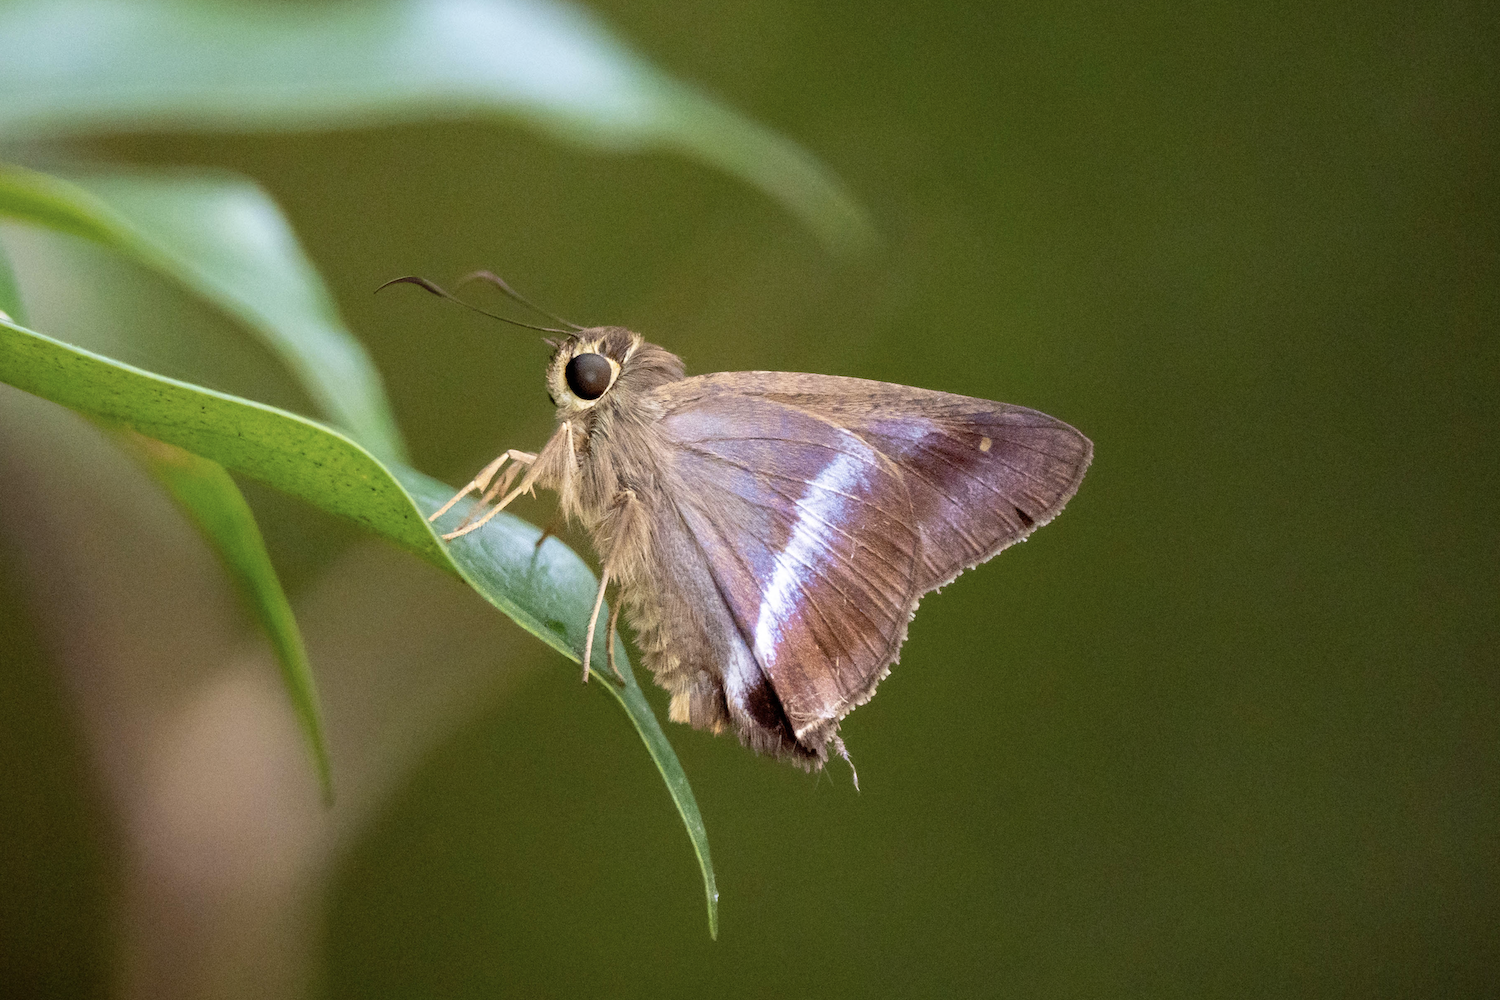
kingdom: Animalia
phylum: Arthropoda
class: Insecta
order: Lepidoptera
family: Hesperiidae
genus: Hasora
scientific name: Hasora vitta
